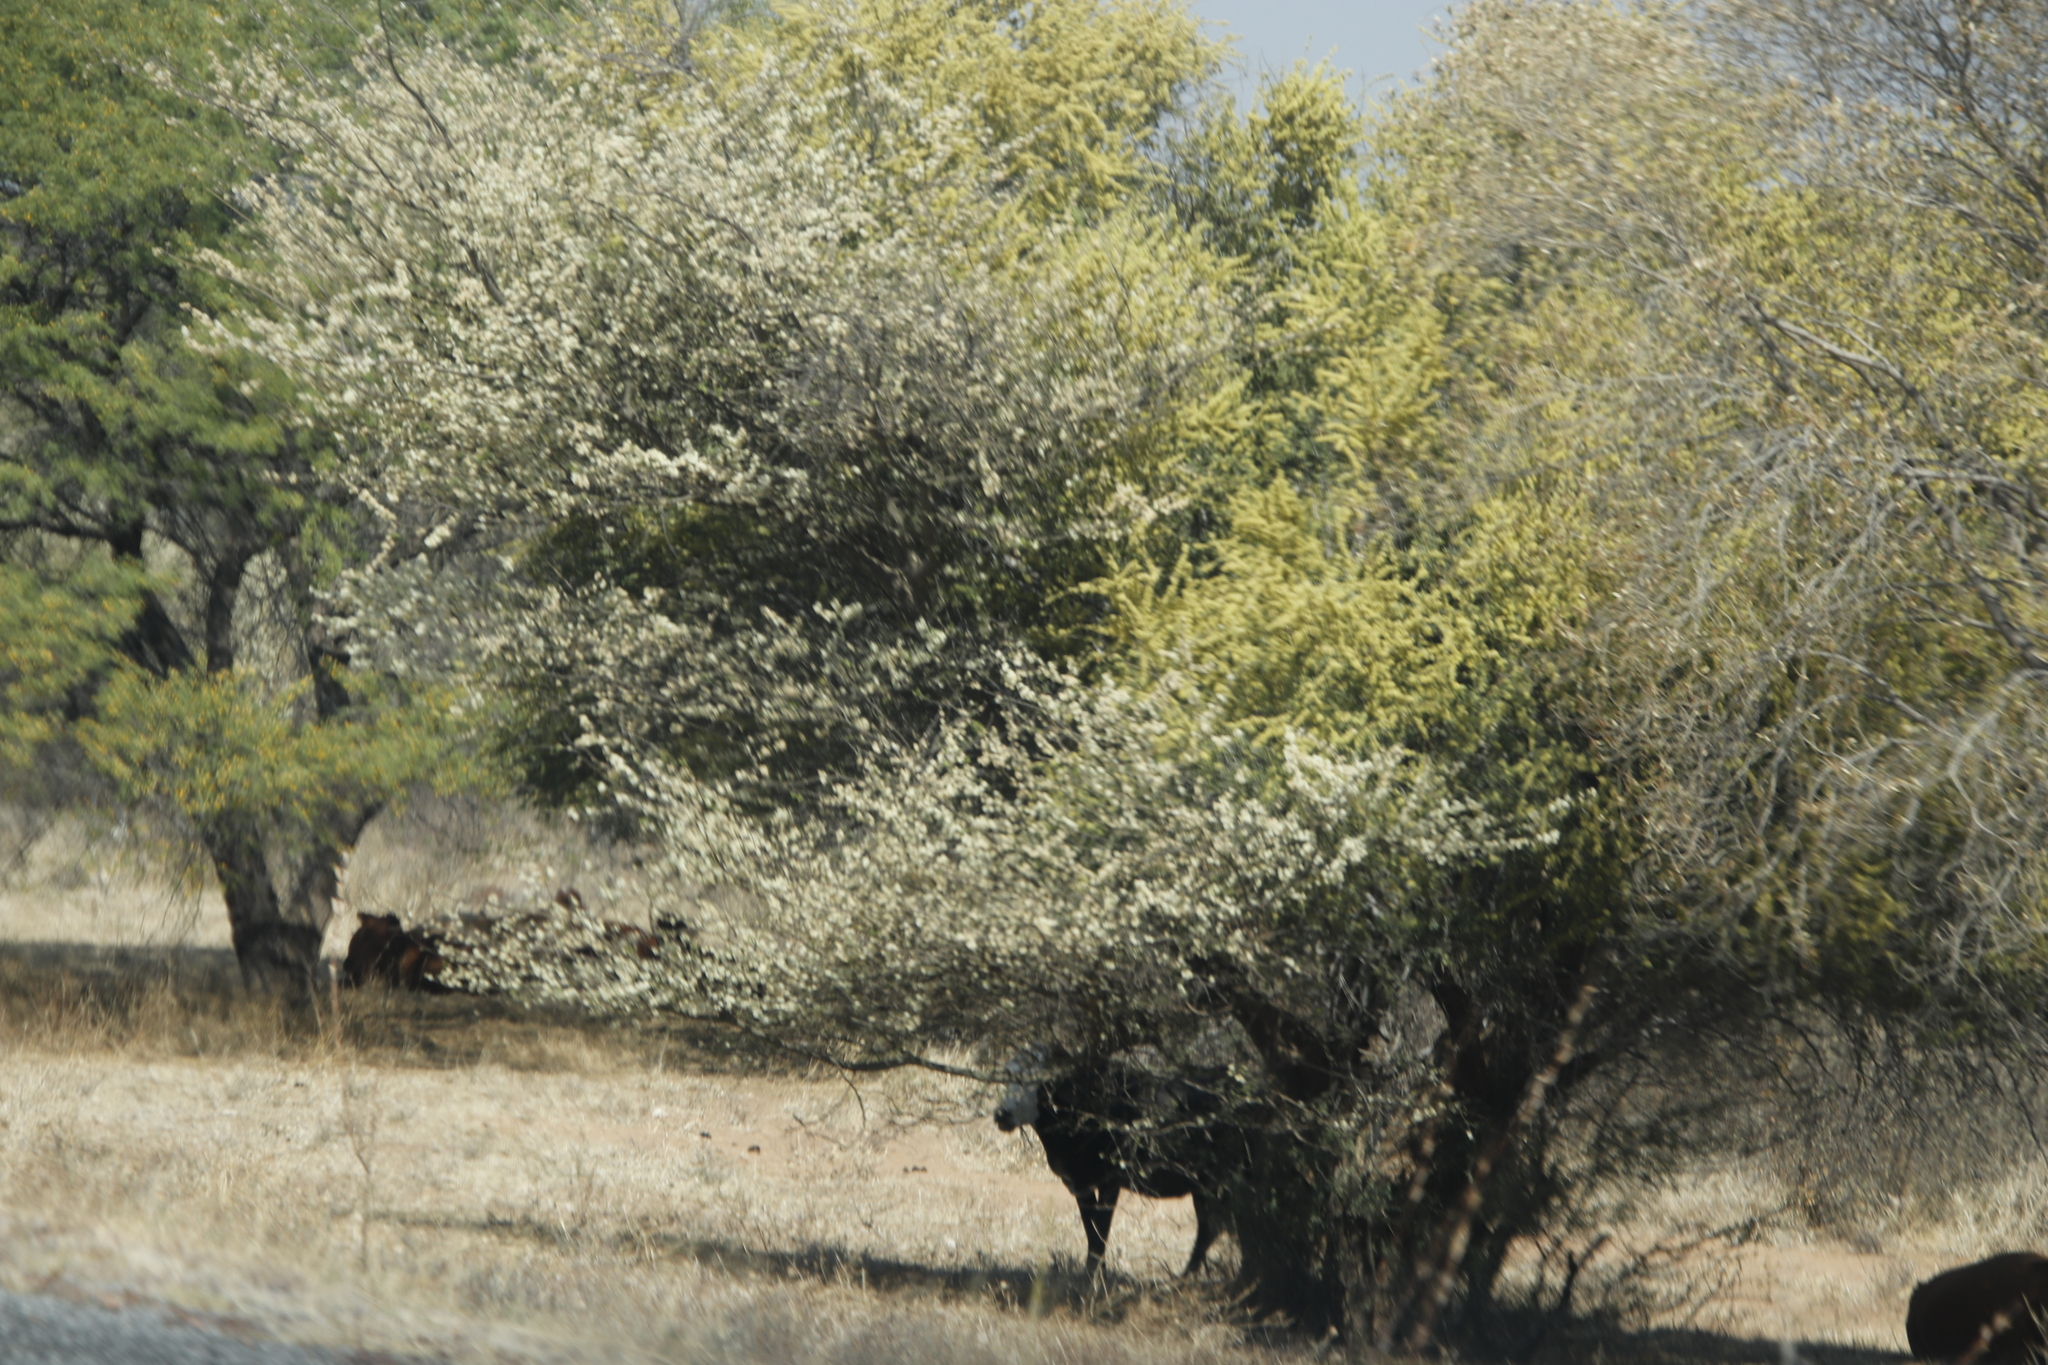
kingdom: Plantae
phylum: Tracheophyta
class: Magnoliopsida
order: Fabales
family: Fabaceae
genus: Senegalia
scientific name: Senegalia mellifera
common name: Hookthorn
